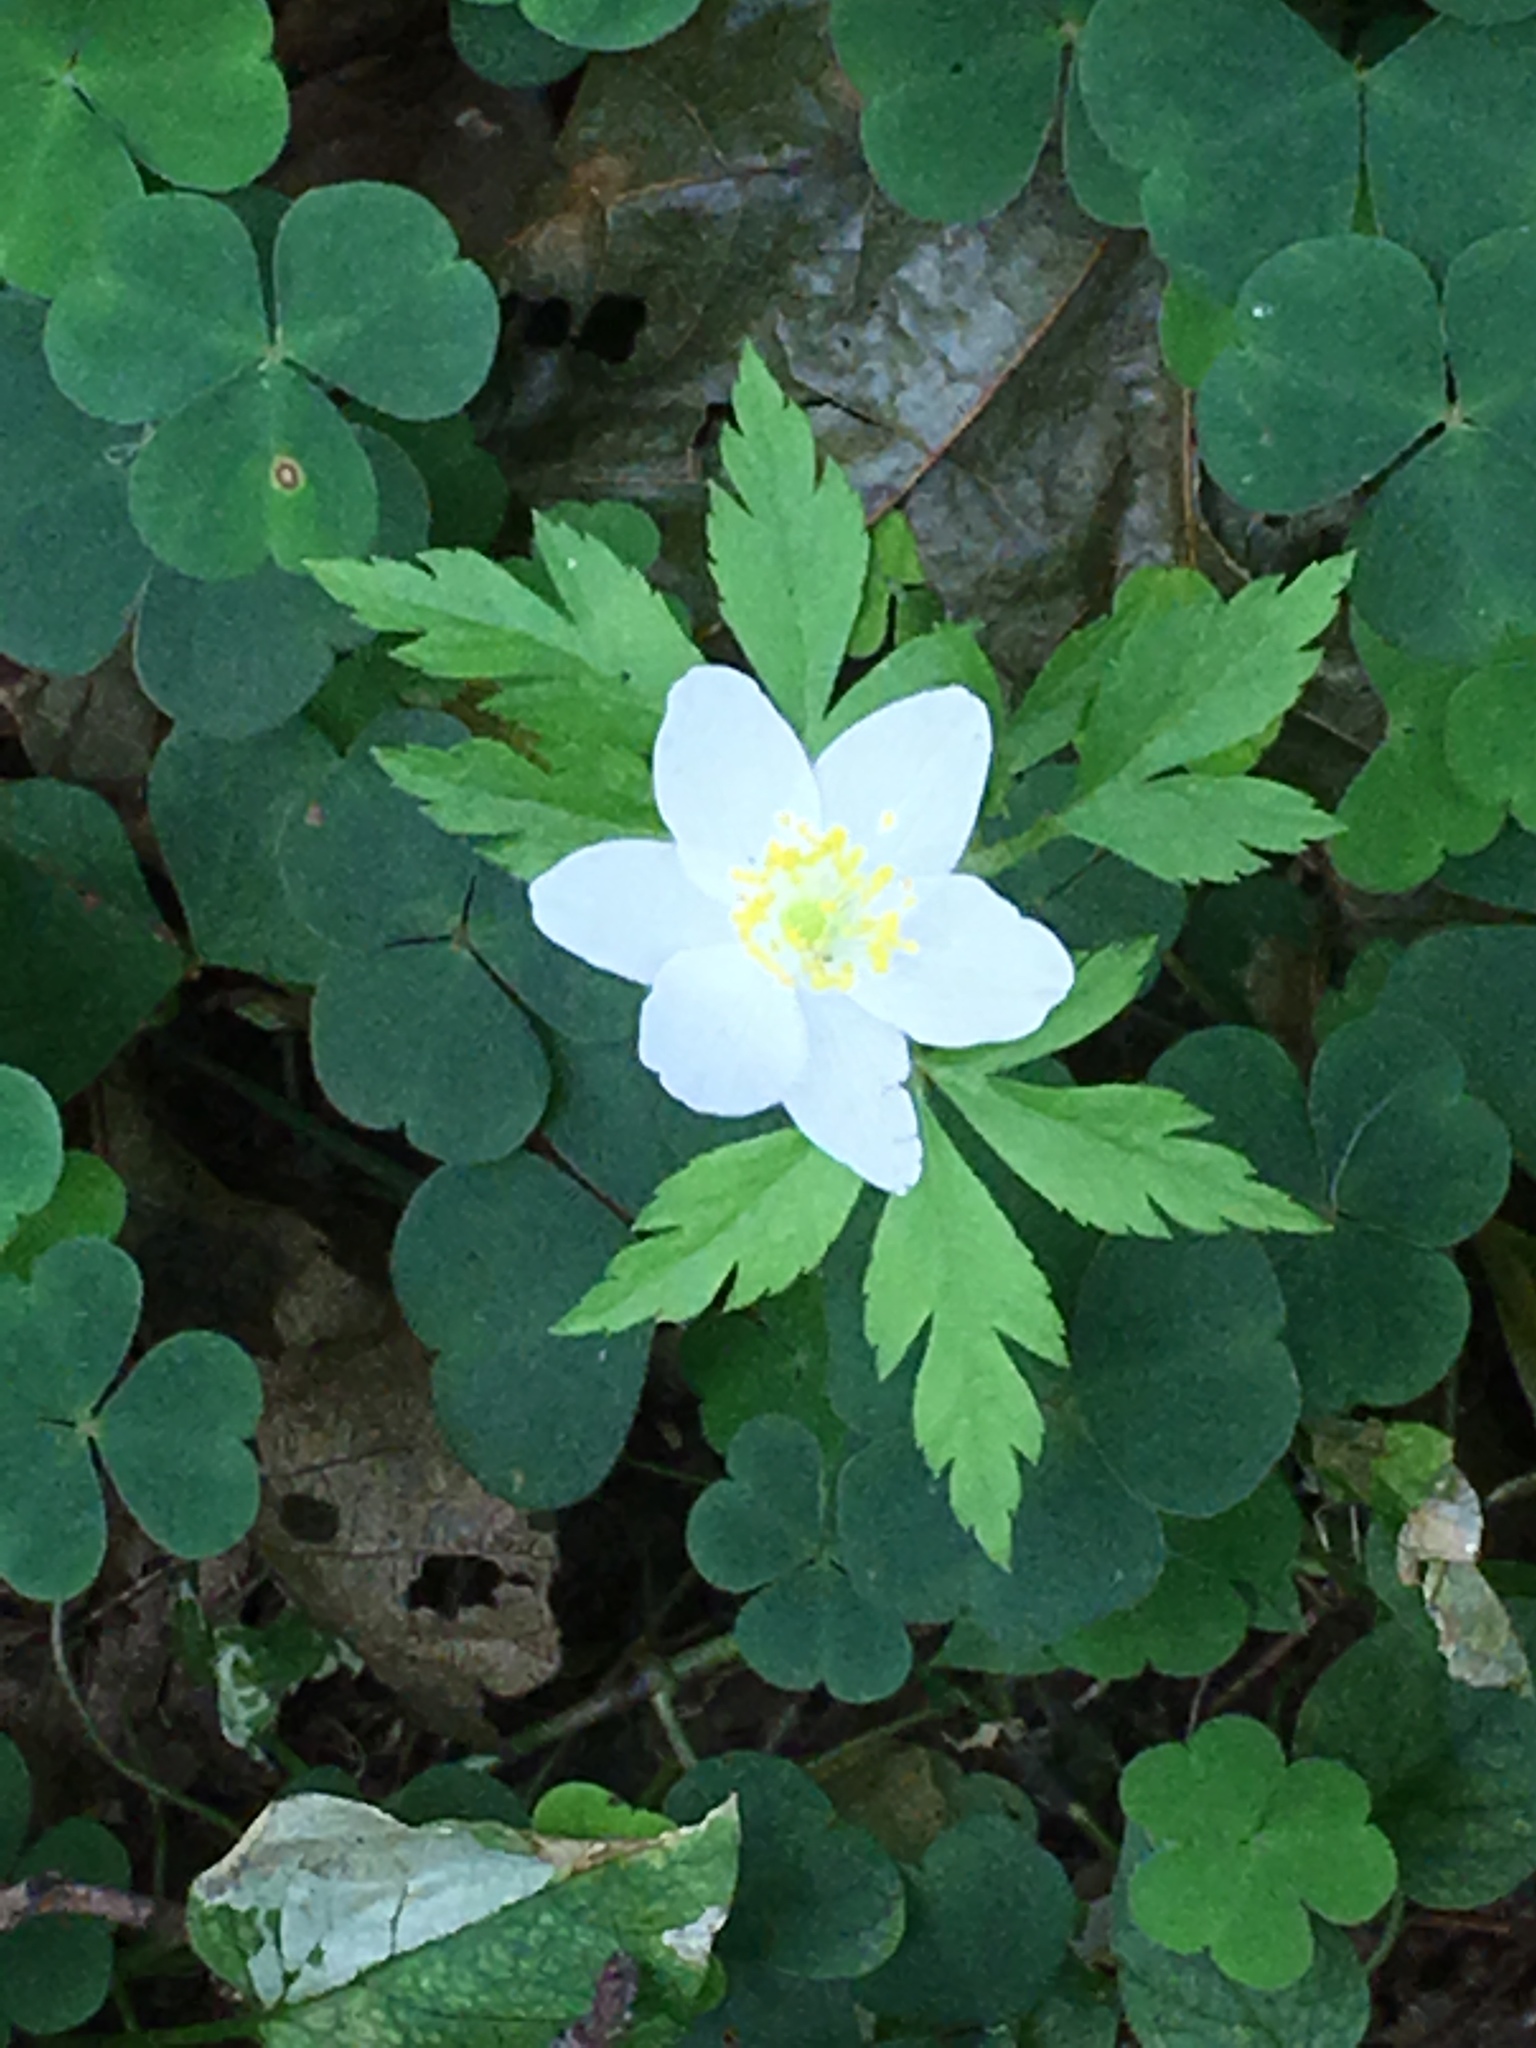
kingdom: Plantae
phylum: Tracheophyta
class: Magnoliopsida
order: Ranunculales
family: Ranunculaceae
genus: Anemone
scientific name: Anemone nemorosa
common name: Wood anemone
